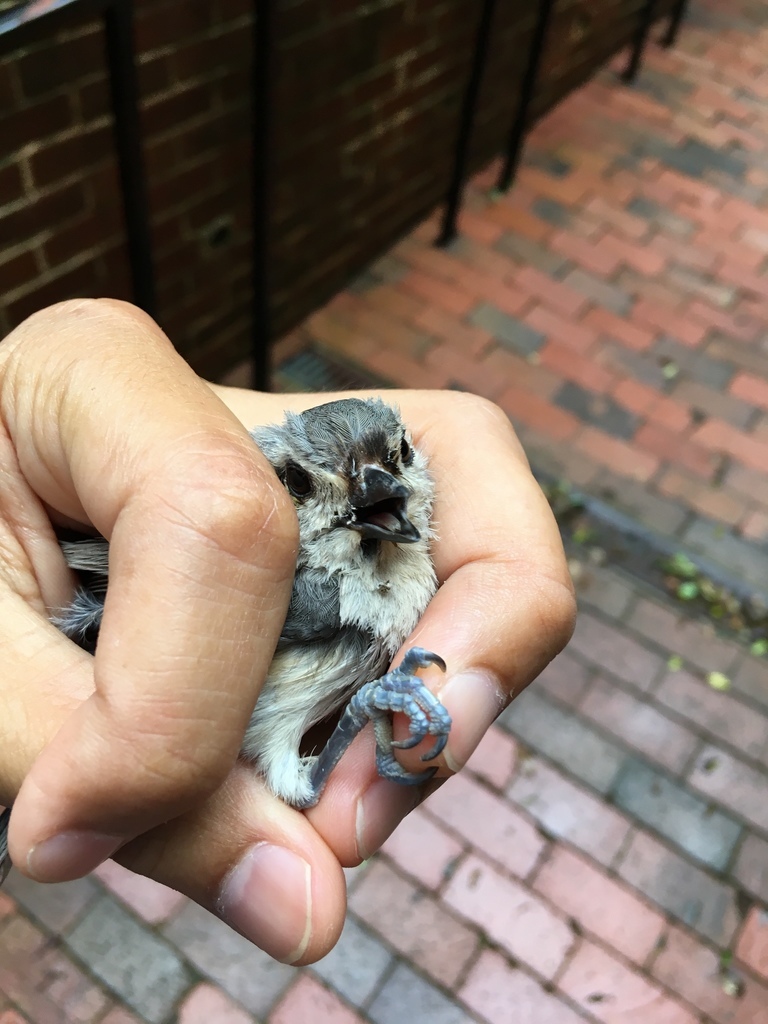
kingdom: Animalia
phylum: Chordata
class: Aves
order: Passeriformes
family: Paridae
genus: Baeolophus
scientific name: Baeolophus bicolor
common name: Tufted titmouse
